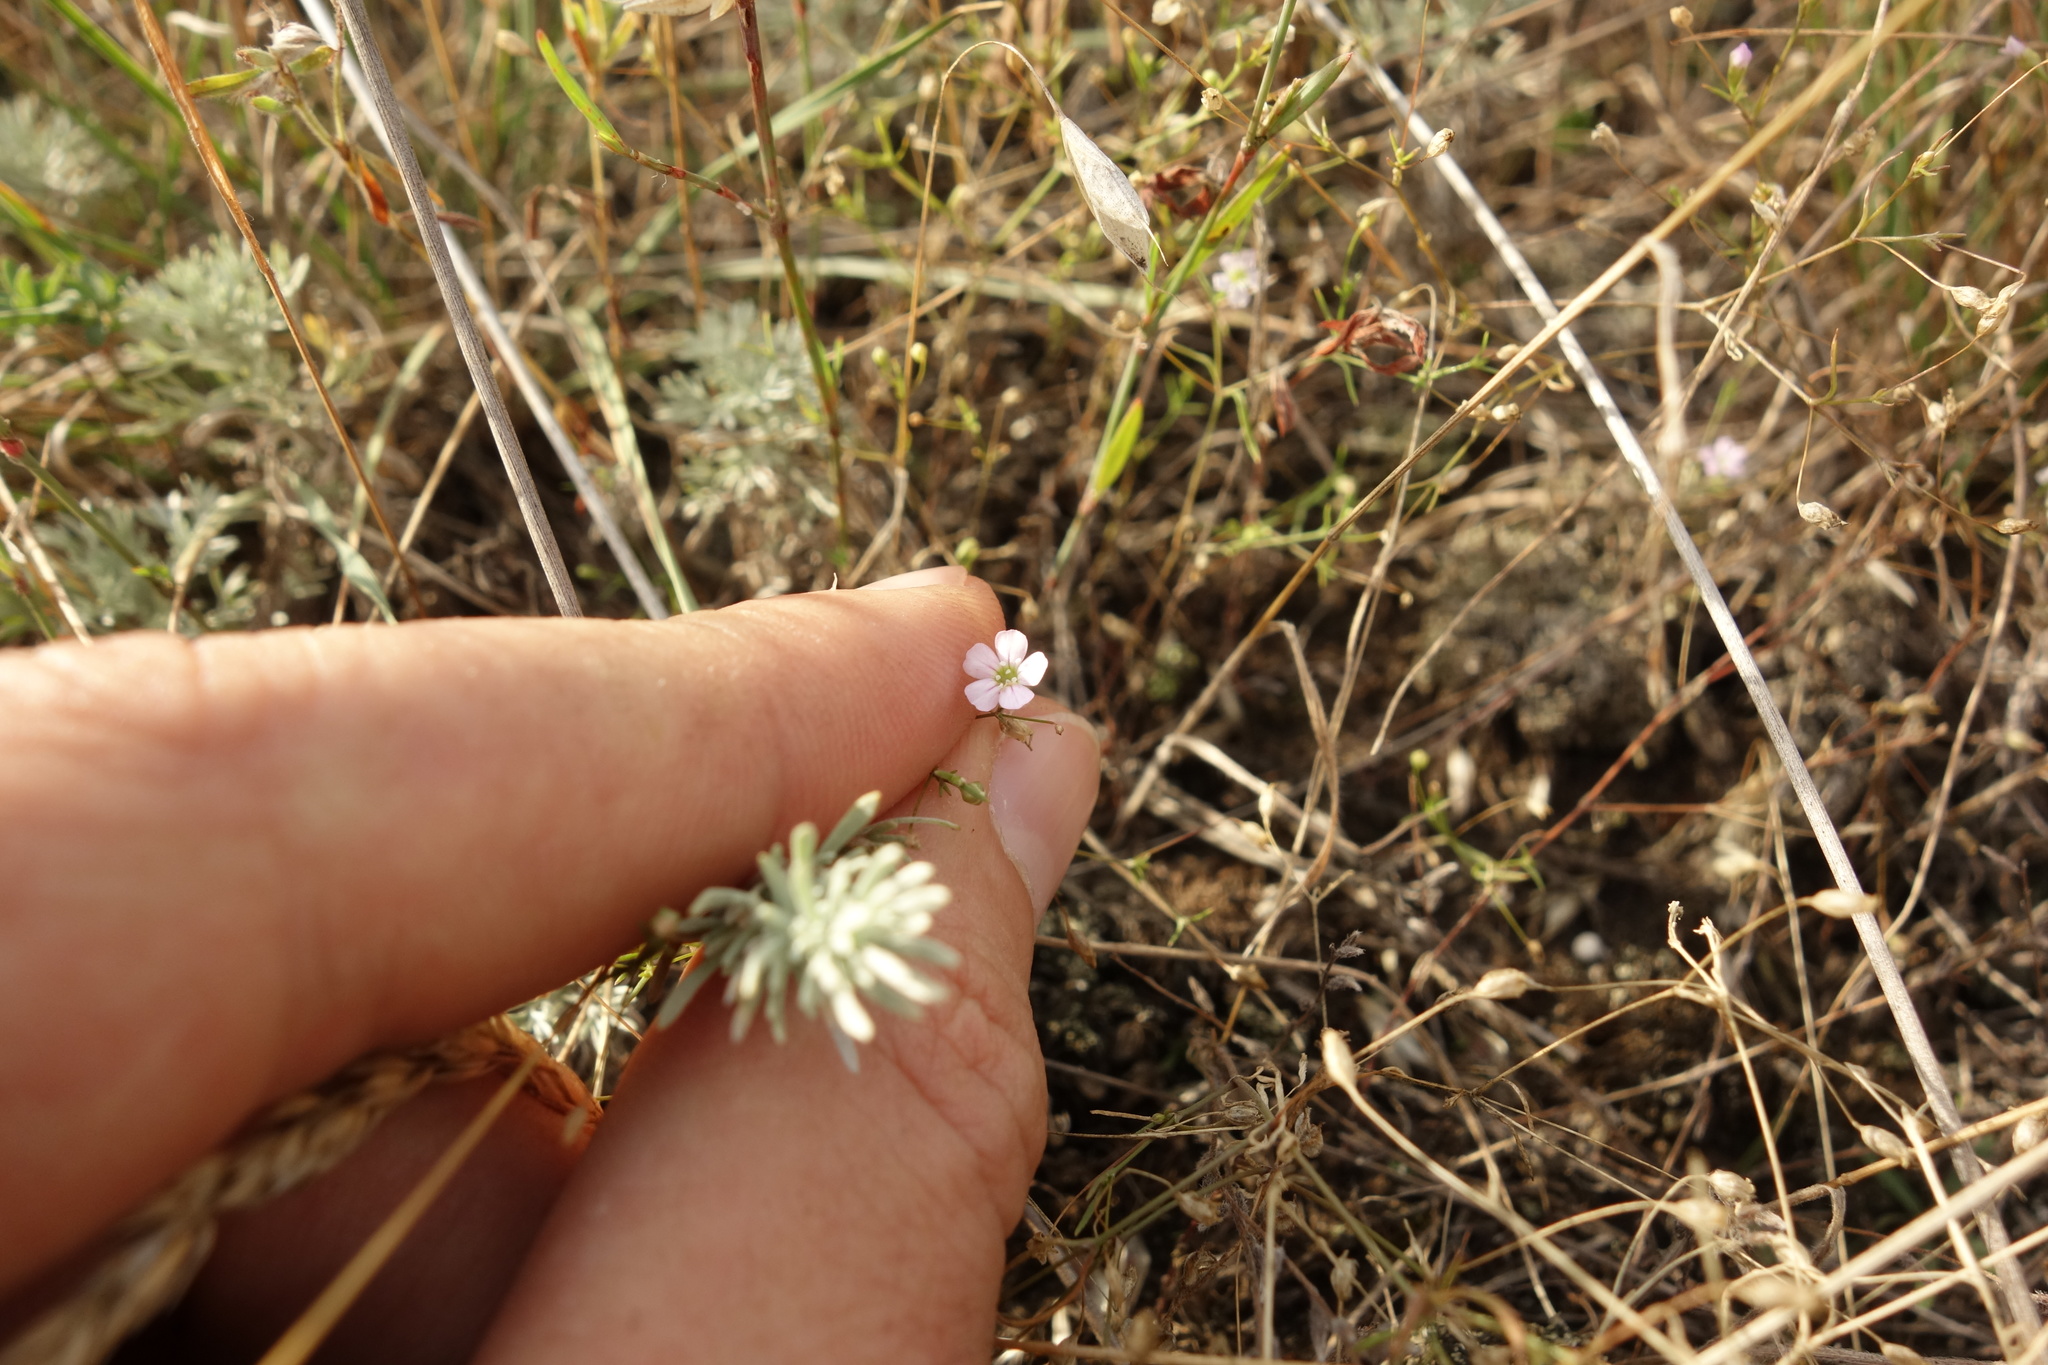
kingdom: Plantae
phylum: Tracheophyta
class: Magnoliopsida
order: Caryophyllales
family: Caryophyllaceae
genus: Psammophiliella
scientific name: Psammophiliella muralis
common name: Cushion baby's-breath
